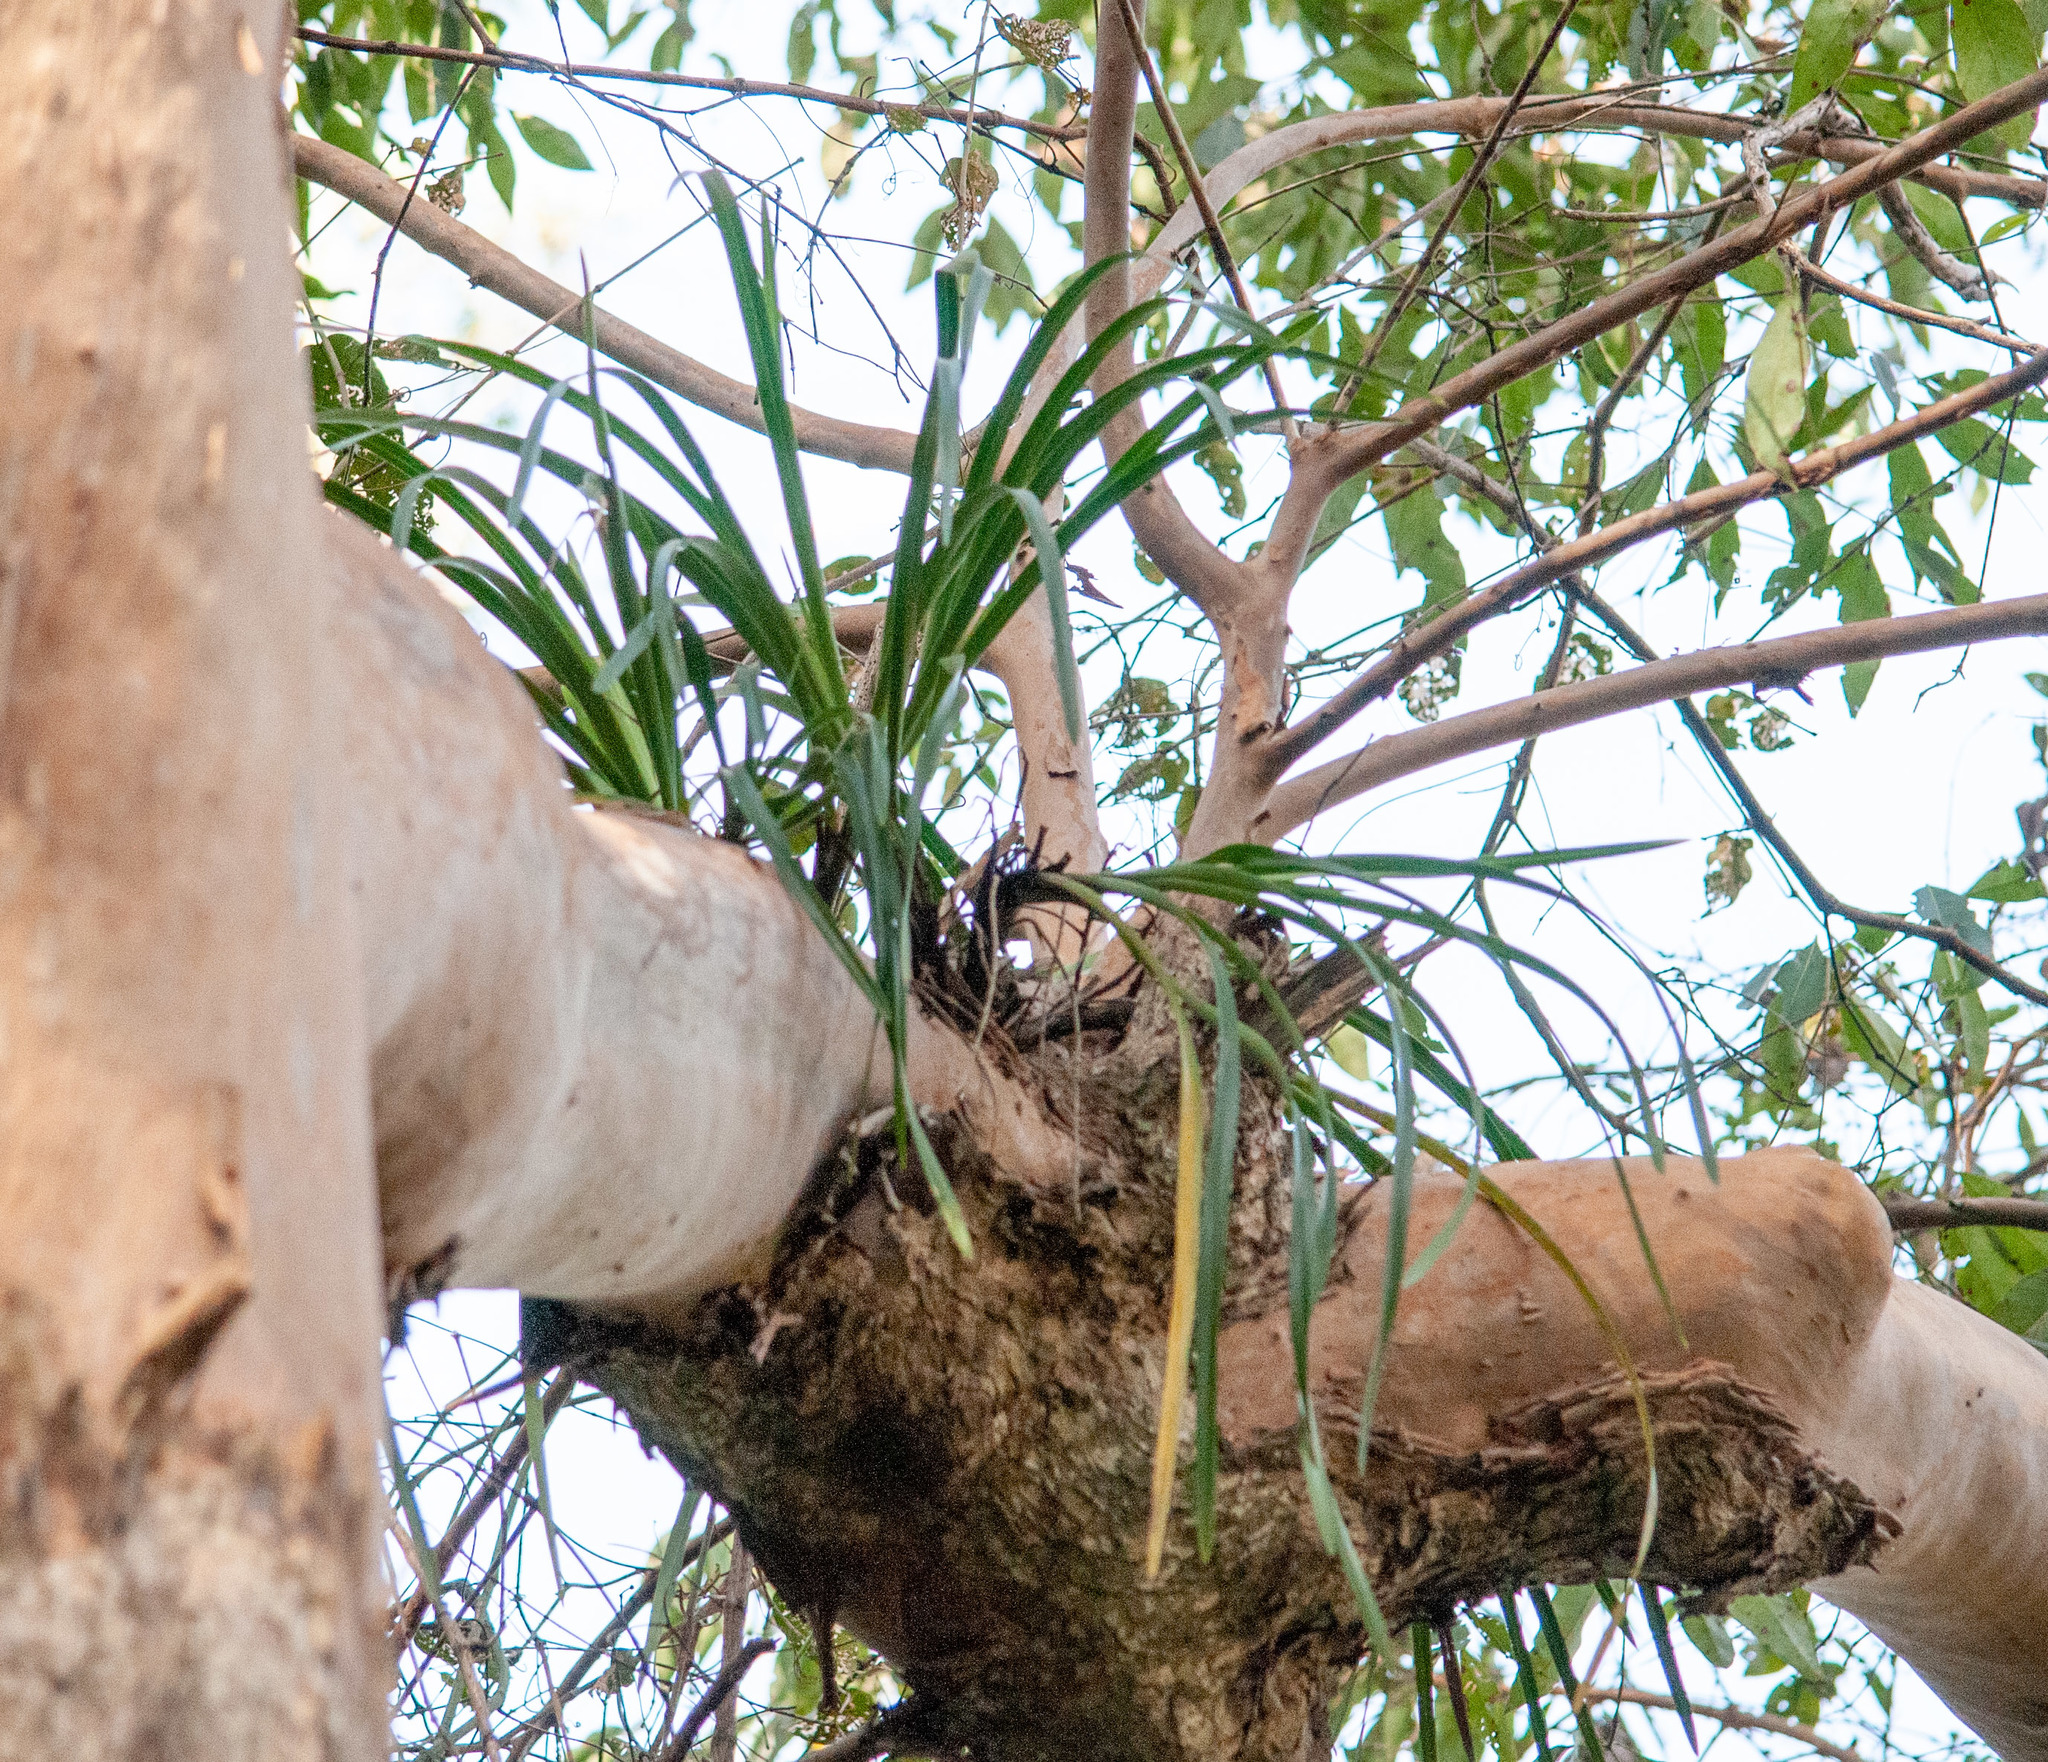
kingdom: Plantae
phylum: Tracheophyta
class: Liliopsida
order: Asparagales
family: Orchidaceae
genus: Cymbidium
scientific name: Cymbidium suave
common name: Snake orchid
